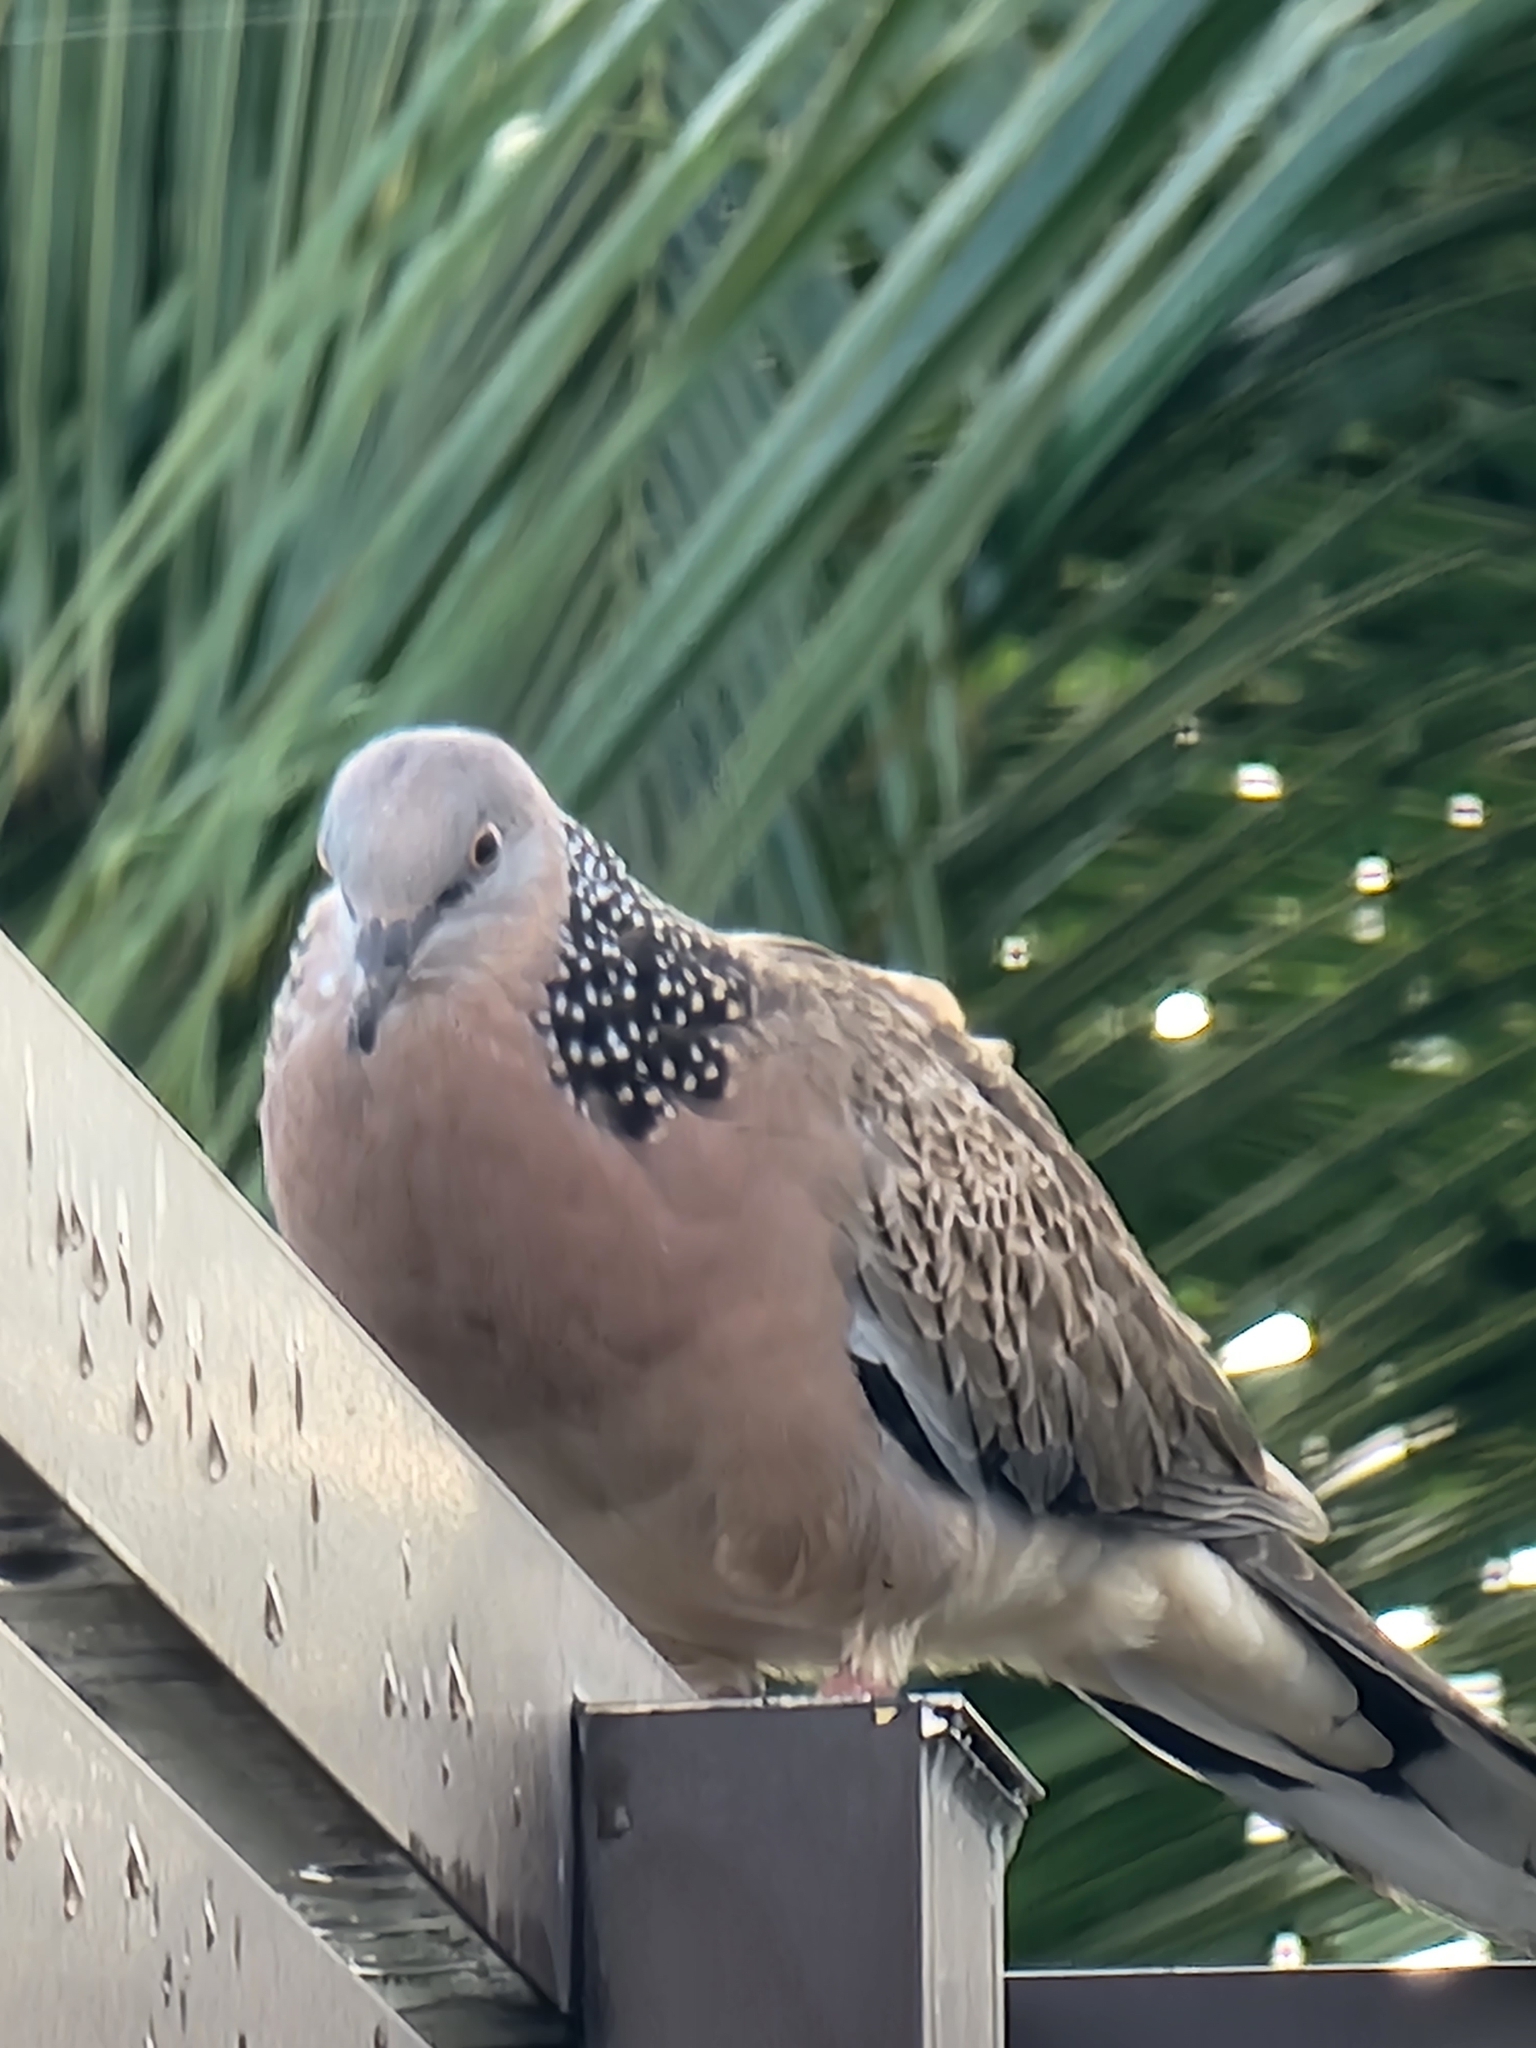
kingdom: Animalia
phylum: Chordata
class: Aves
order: Columbiformes
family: Columbidae
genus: Spilopelia
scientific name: Spilopelia chinensis
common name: Spotted dove
